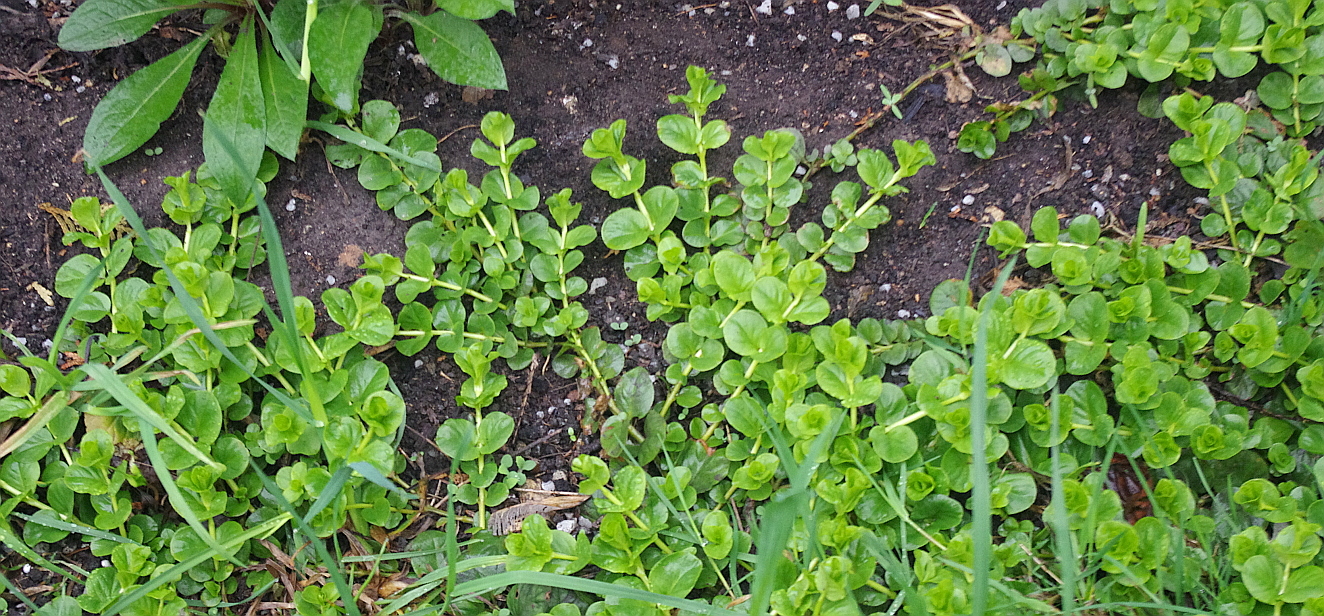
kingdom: Plantae
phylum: Tracheophyta
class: Magnoliopsida
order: Ericales
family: Primulaceae
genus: Lysimachia
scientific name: Lysimachia nummularia
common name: Moneywort
